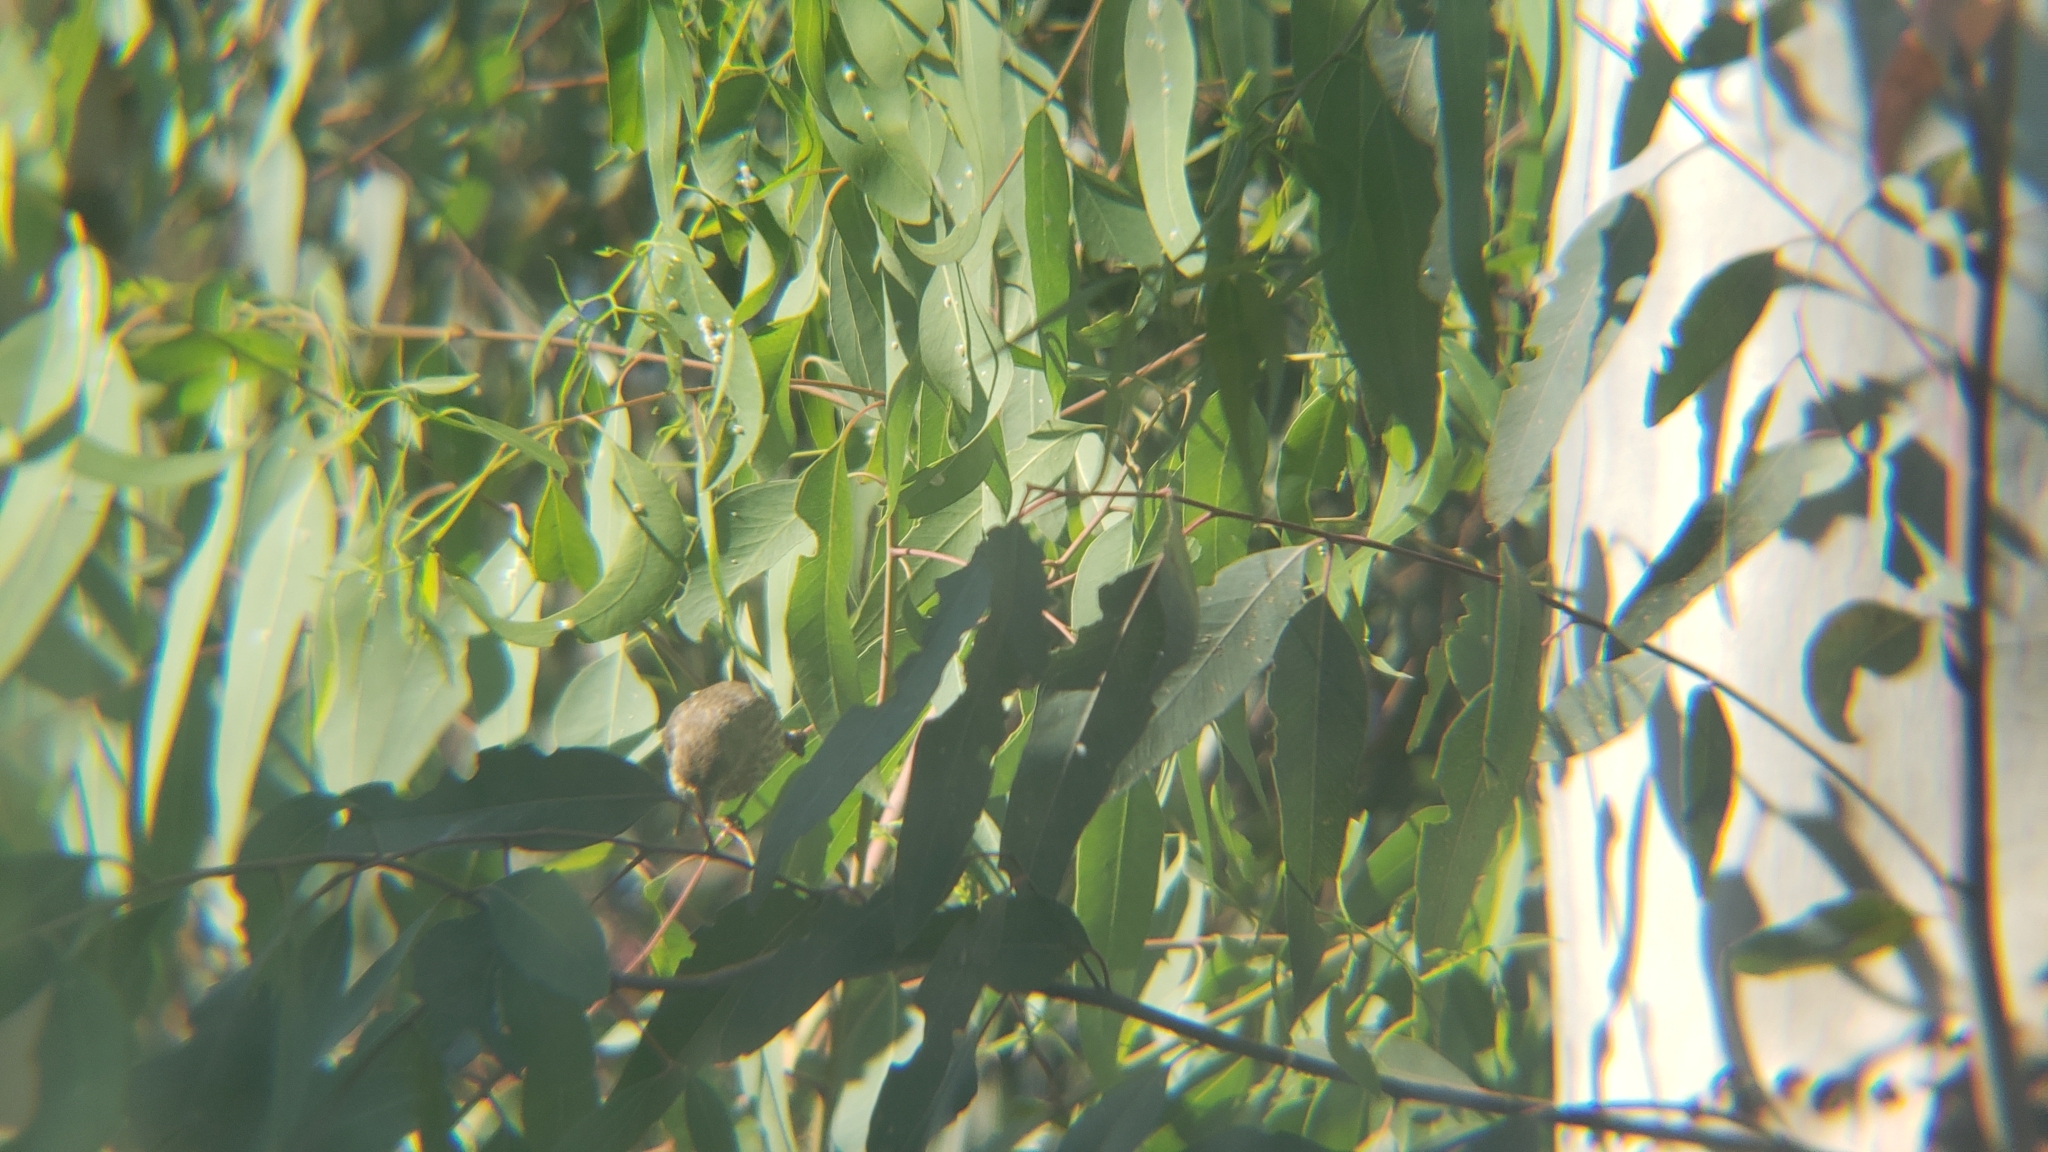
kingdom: Animalia
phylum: Chordata
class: Aves
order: Passeriformes
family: Fringillidae
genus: Haemorhous
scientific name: Haemorhous mexicanus
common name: House finch
